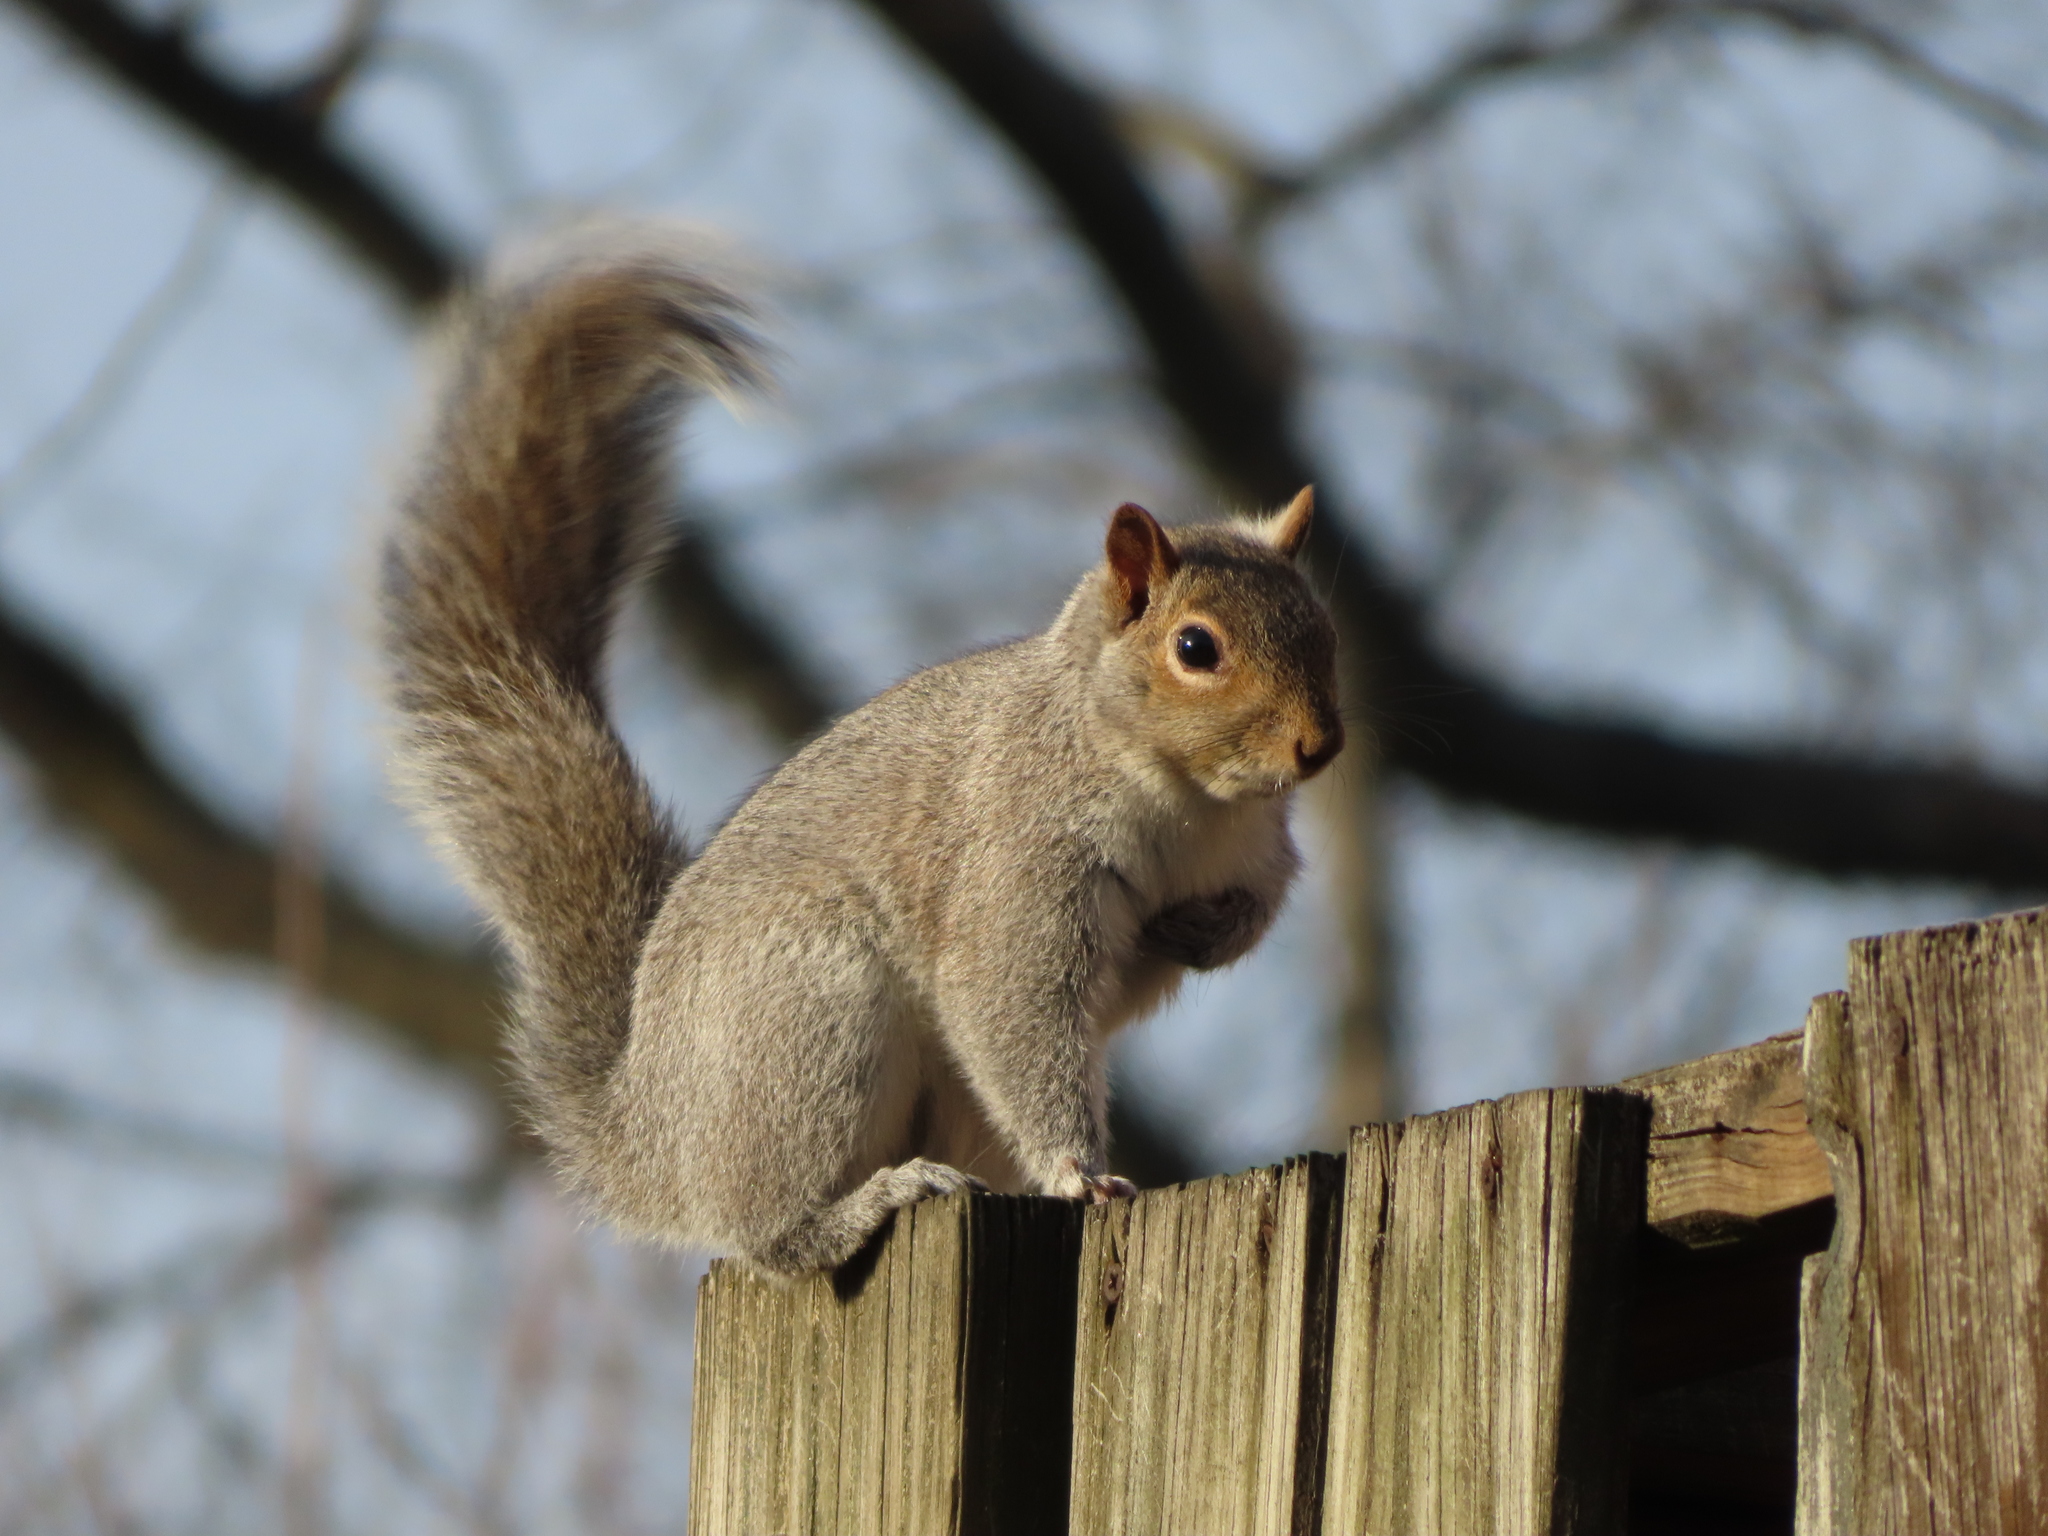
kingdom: Animalia
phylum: Chordata
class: Mammalia
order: Rodentia
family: Sciuridae
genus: Sciurus
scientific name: Sciurus carolinensis
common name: Eastern gray squirrel
